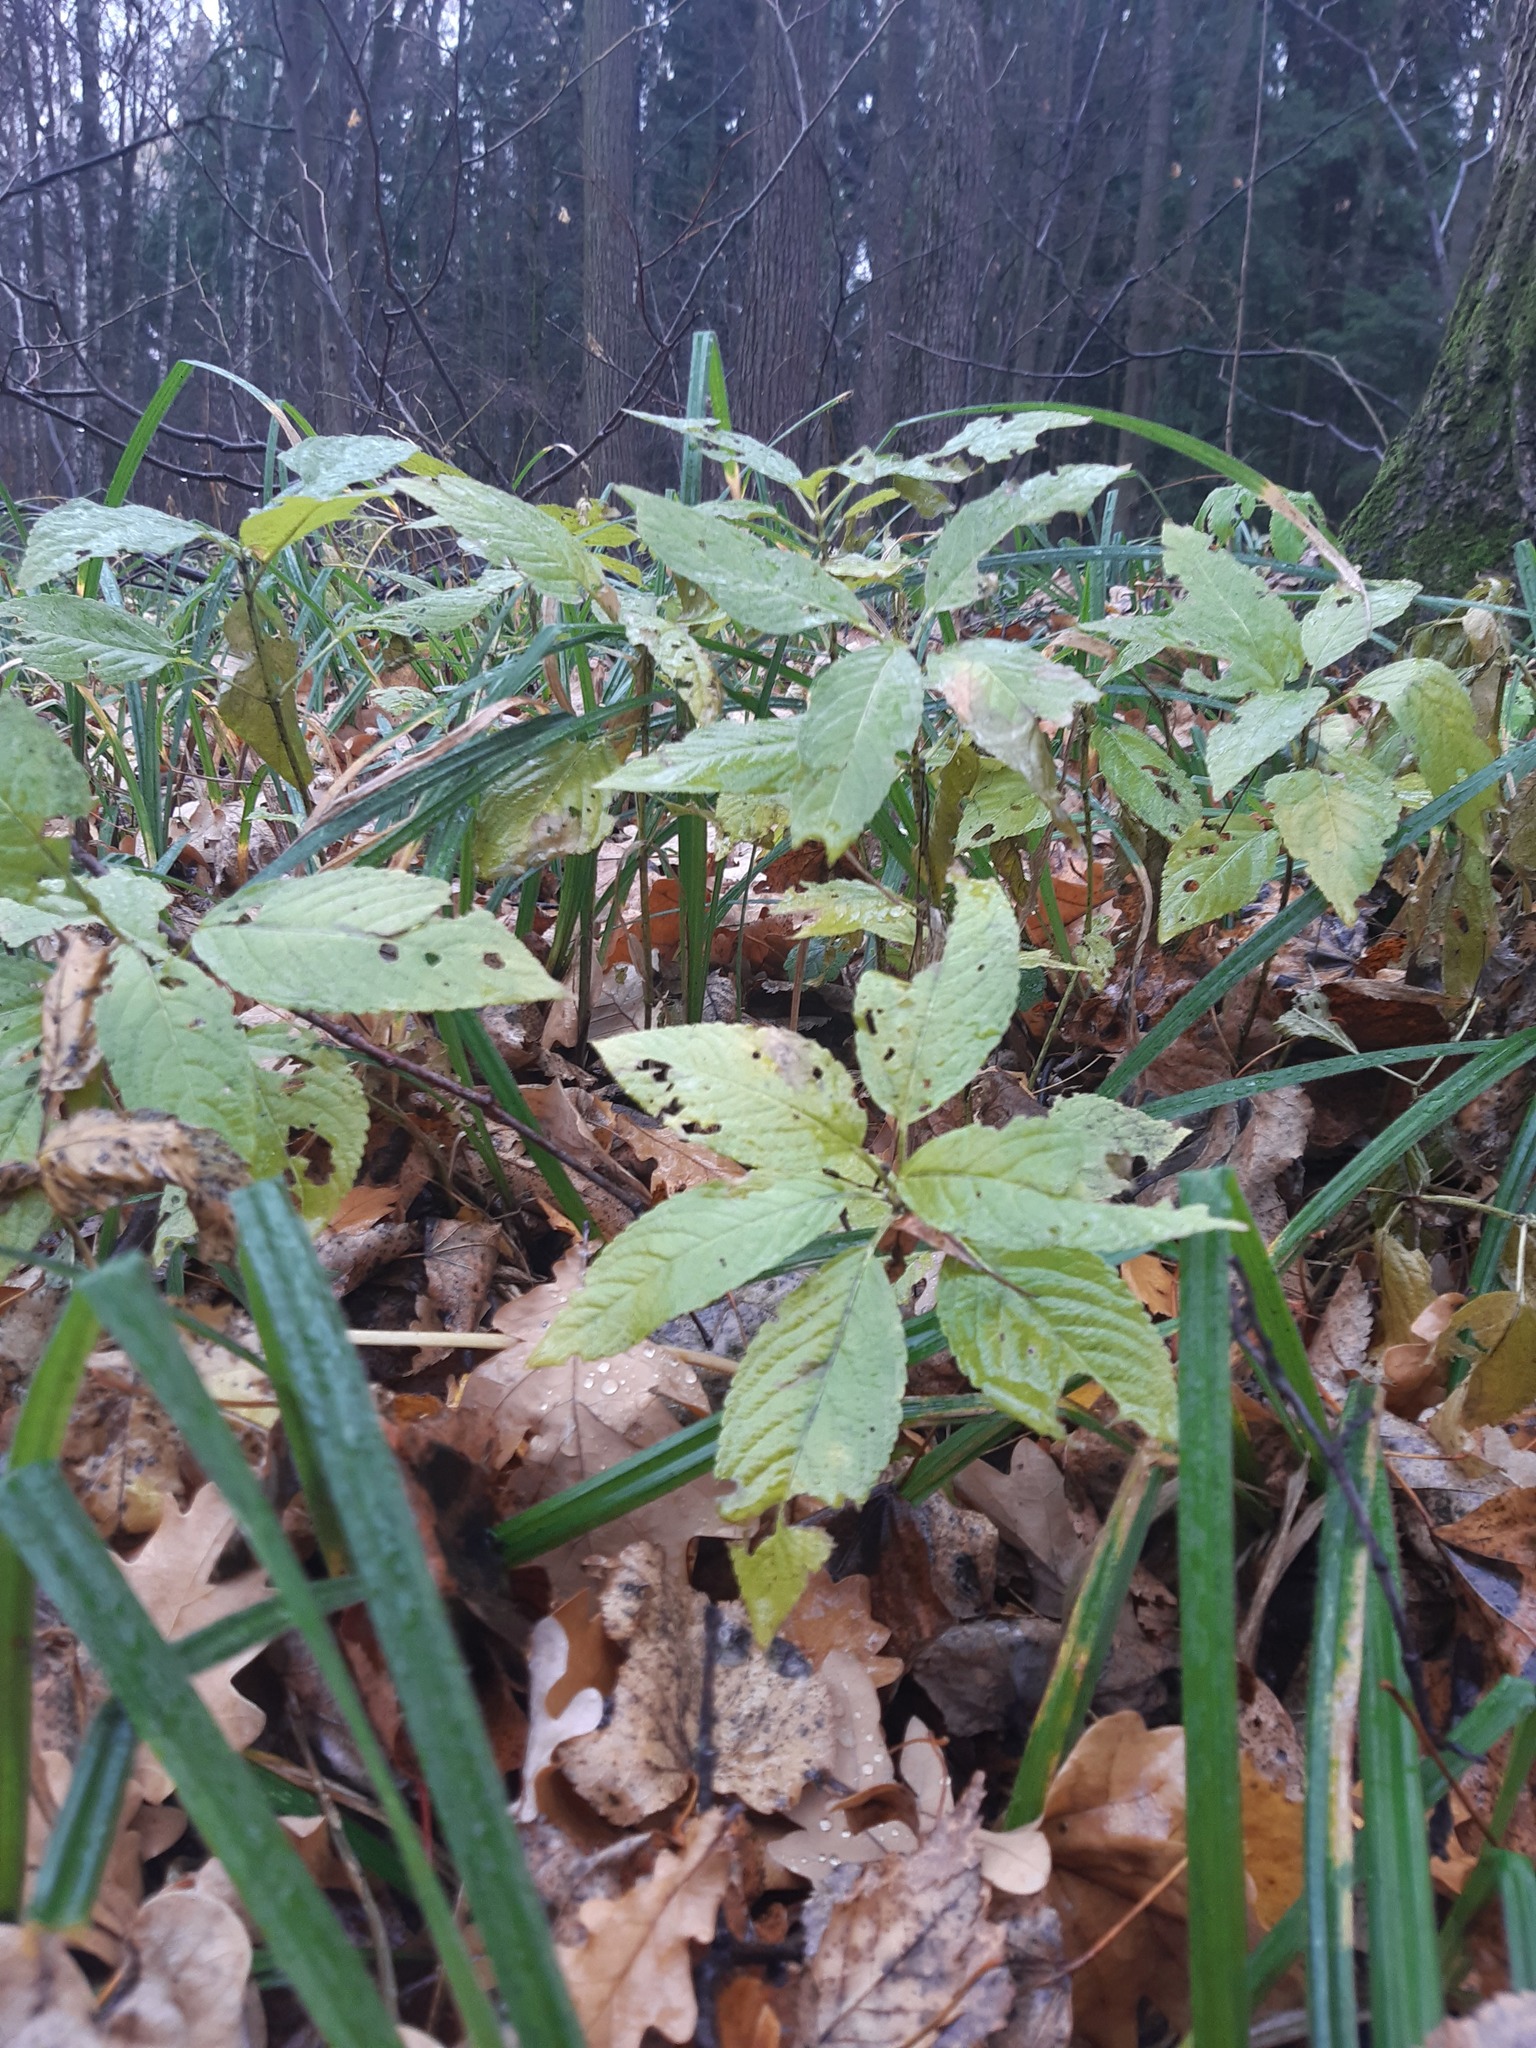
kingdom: Plantae
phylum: Tracheophyta
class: Magnoliopsida
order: Malpighiales
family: Euphorbiaceae
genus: Mercurialis
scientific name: Mercurialis perennis
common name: Dog mercury
